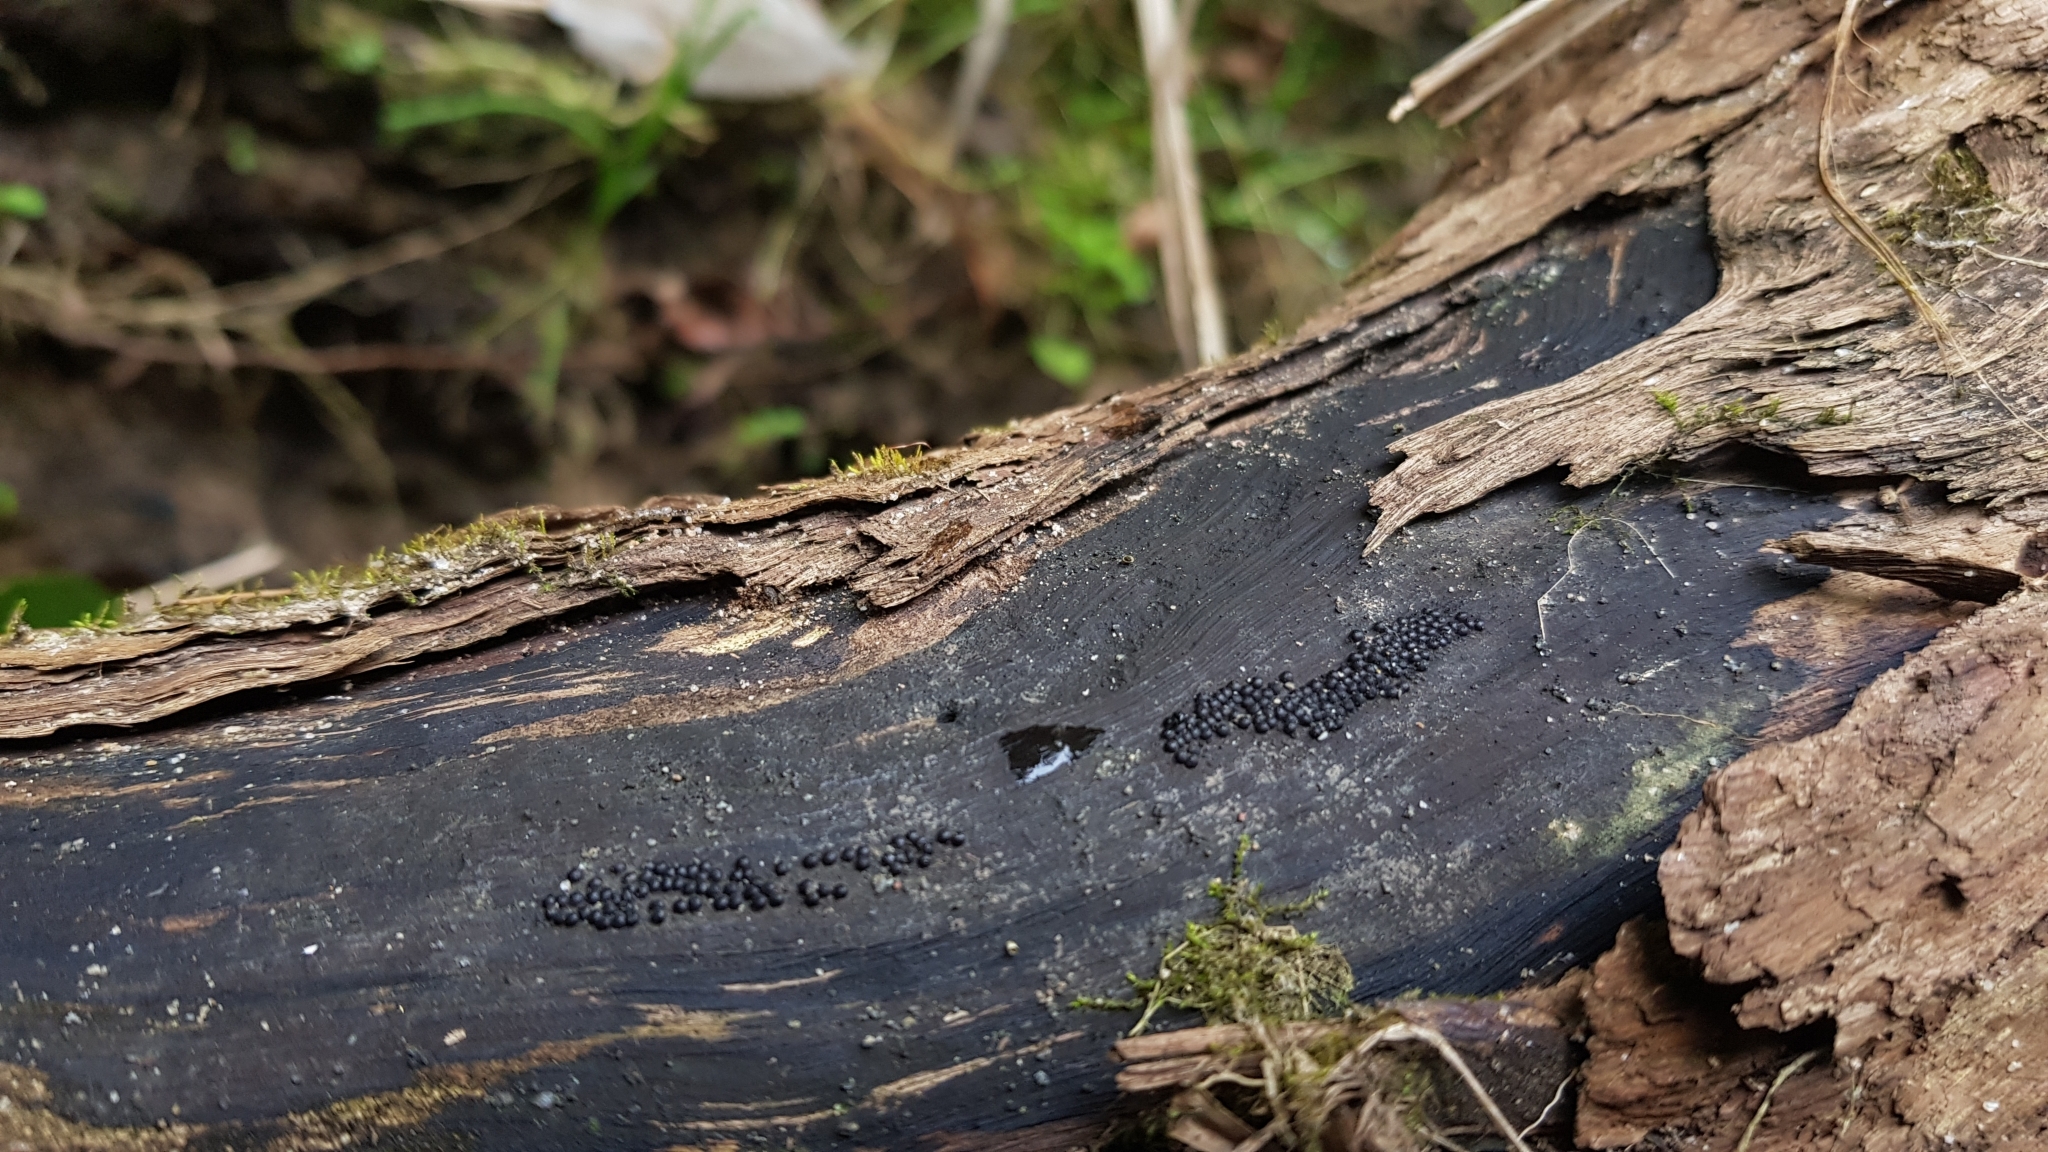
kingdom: Fungi
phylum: Ascomycota
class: Sordariomycetes
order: Xylariales
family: Hypoxylaceae
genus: Annulohypoxylon
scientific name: Annulohypoxylon bovei
